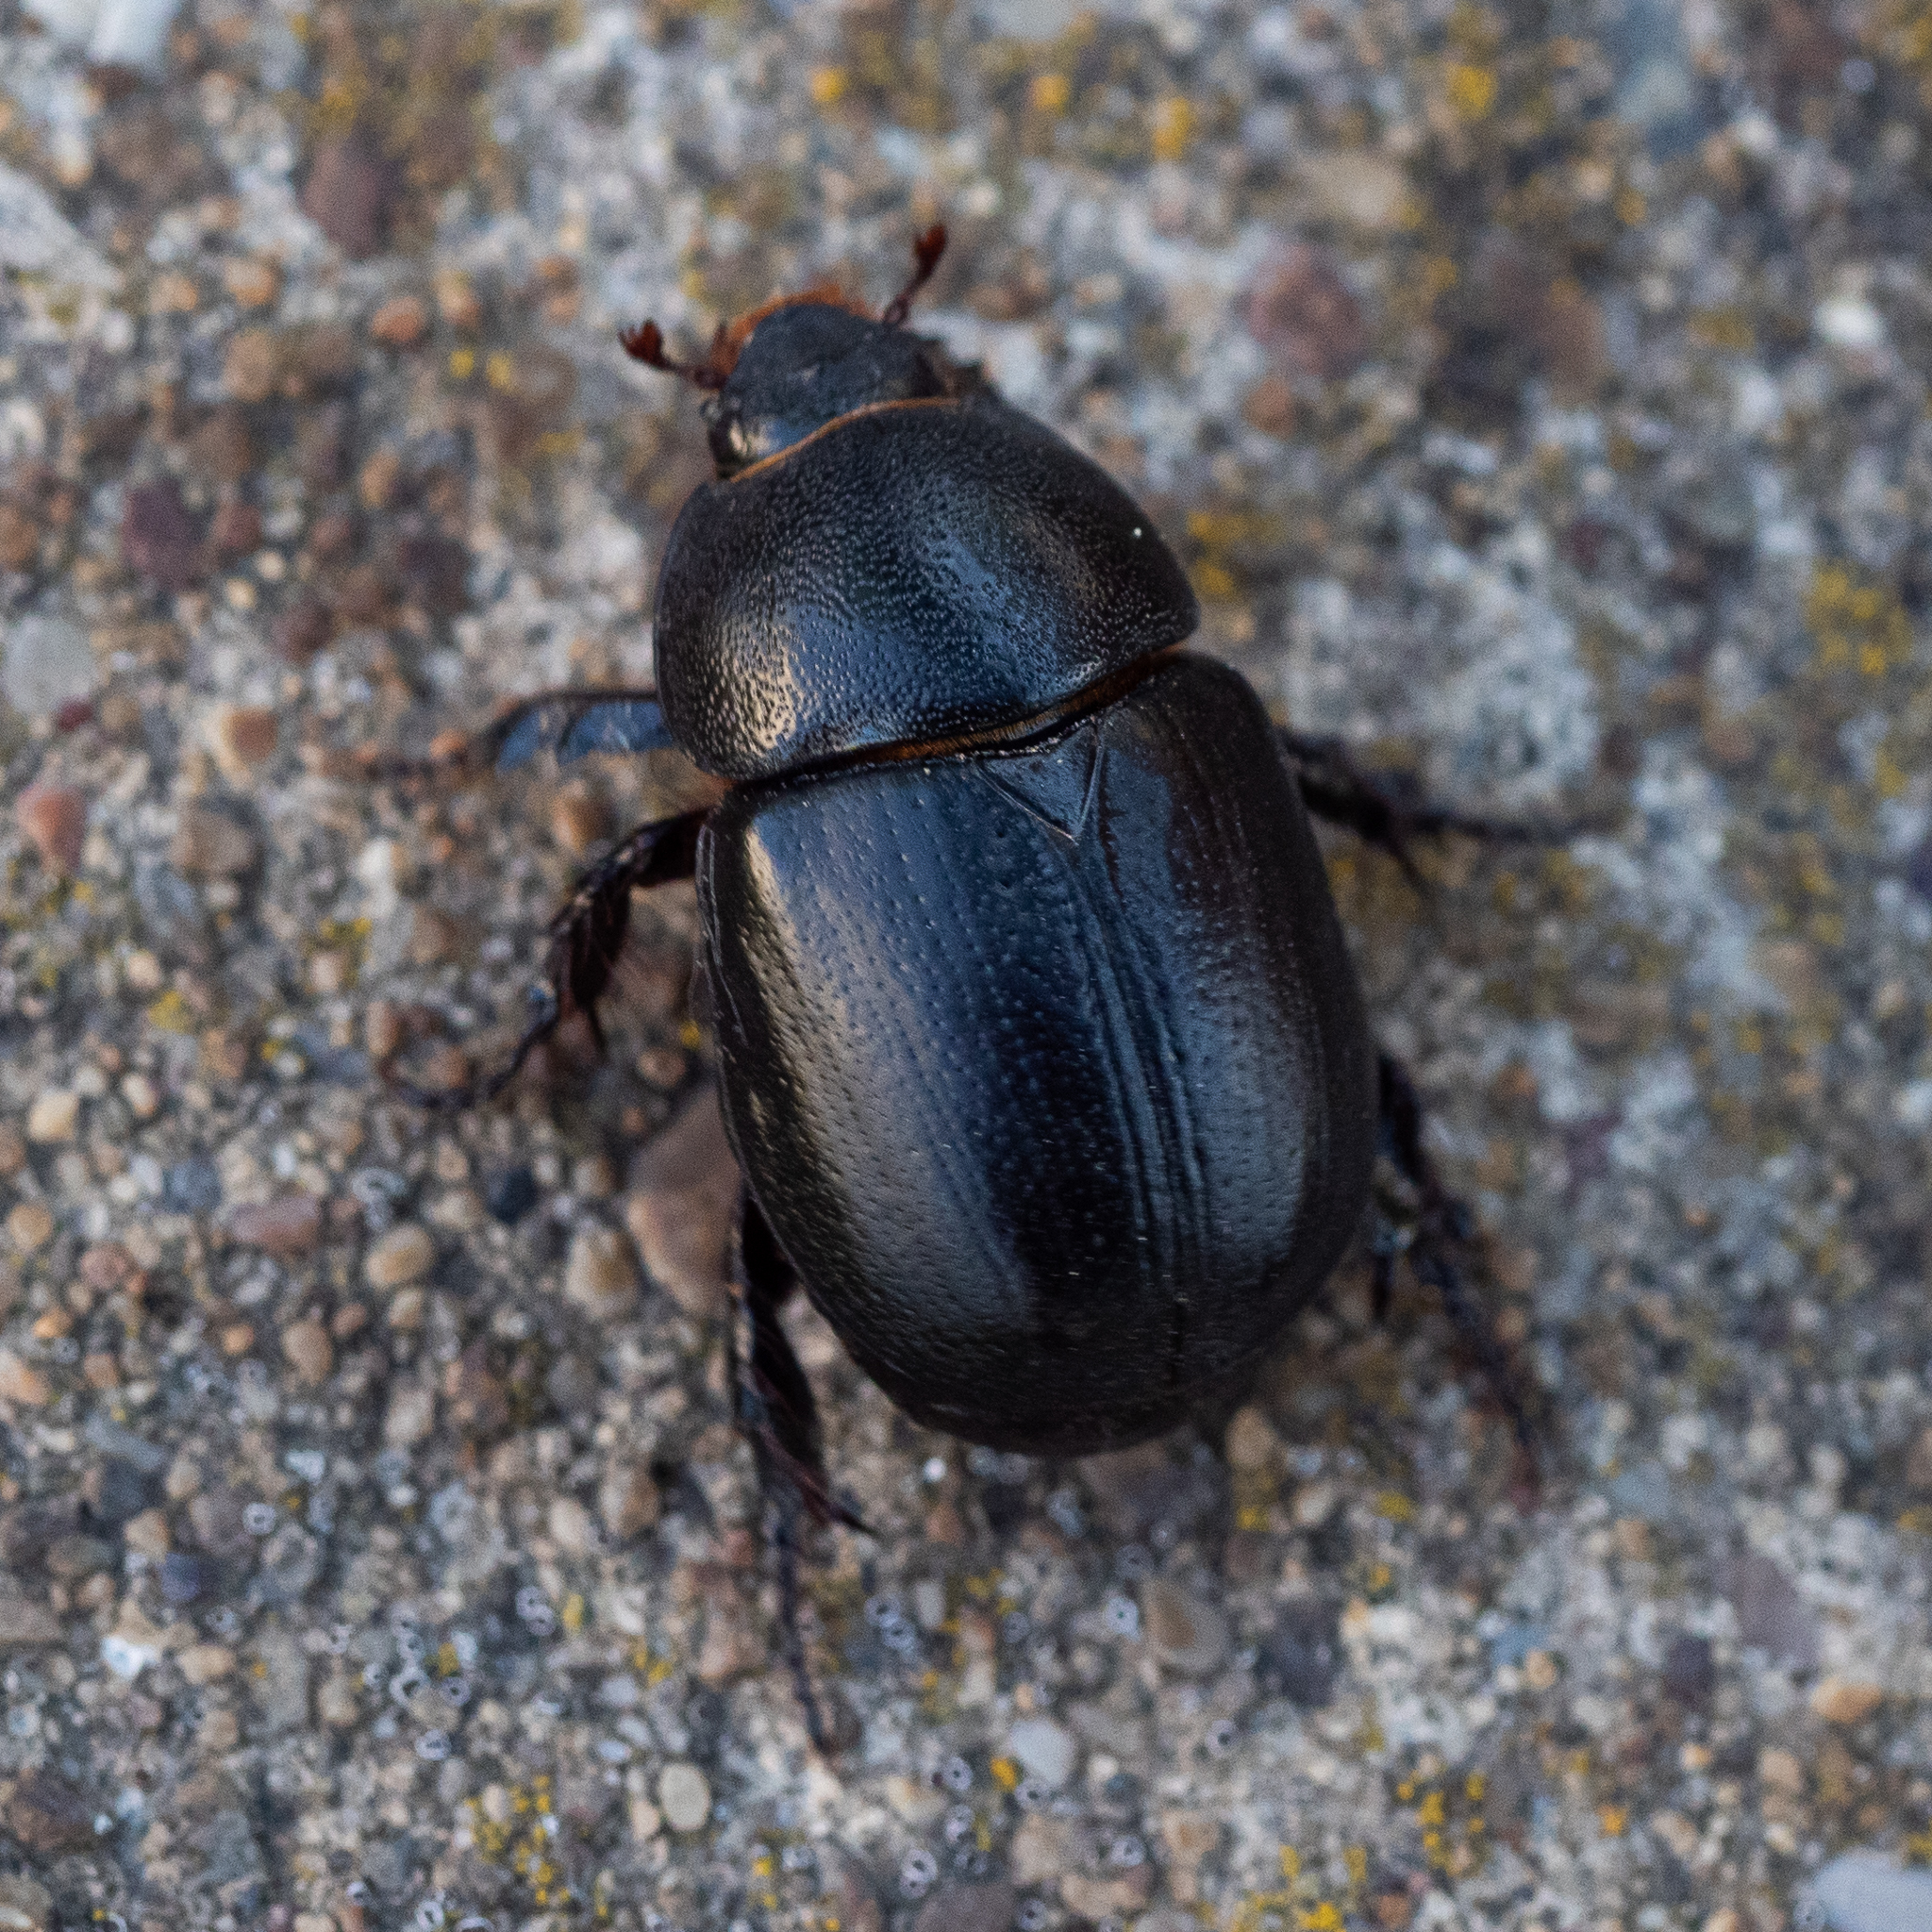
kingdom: Animalia
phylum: Arthropoda
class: Insecta
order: Coleoptera
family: Scarabaeidae
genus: Pentodon
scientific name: Pentodon idiota
